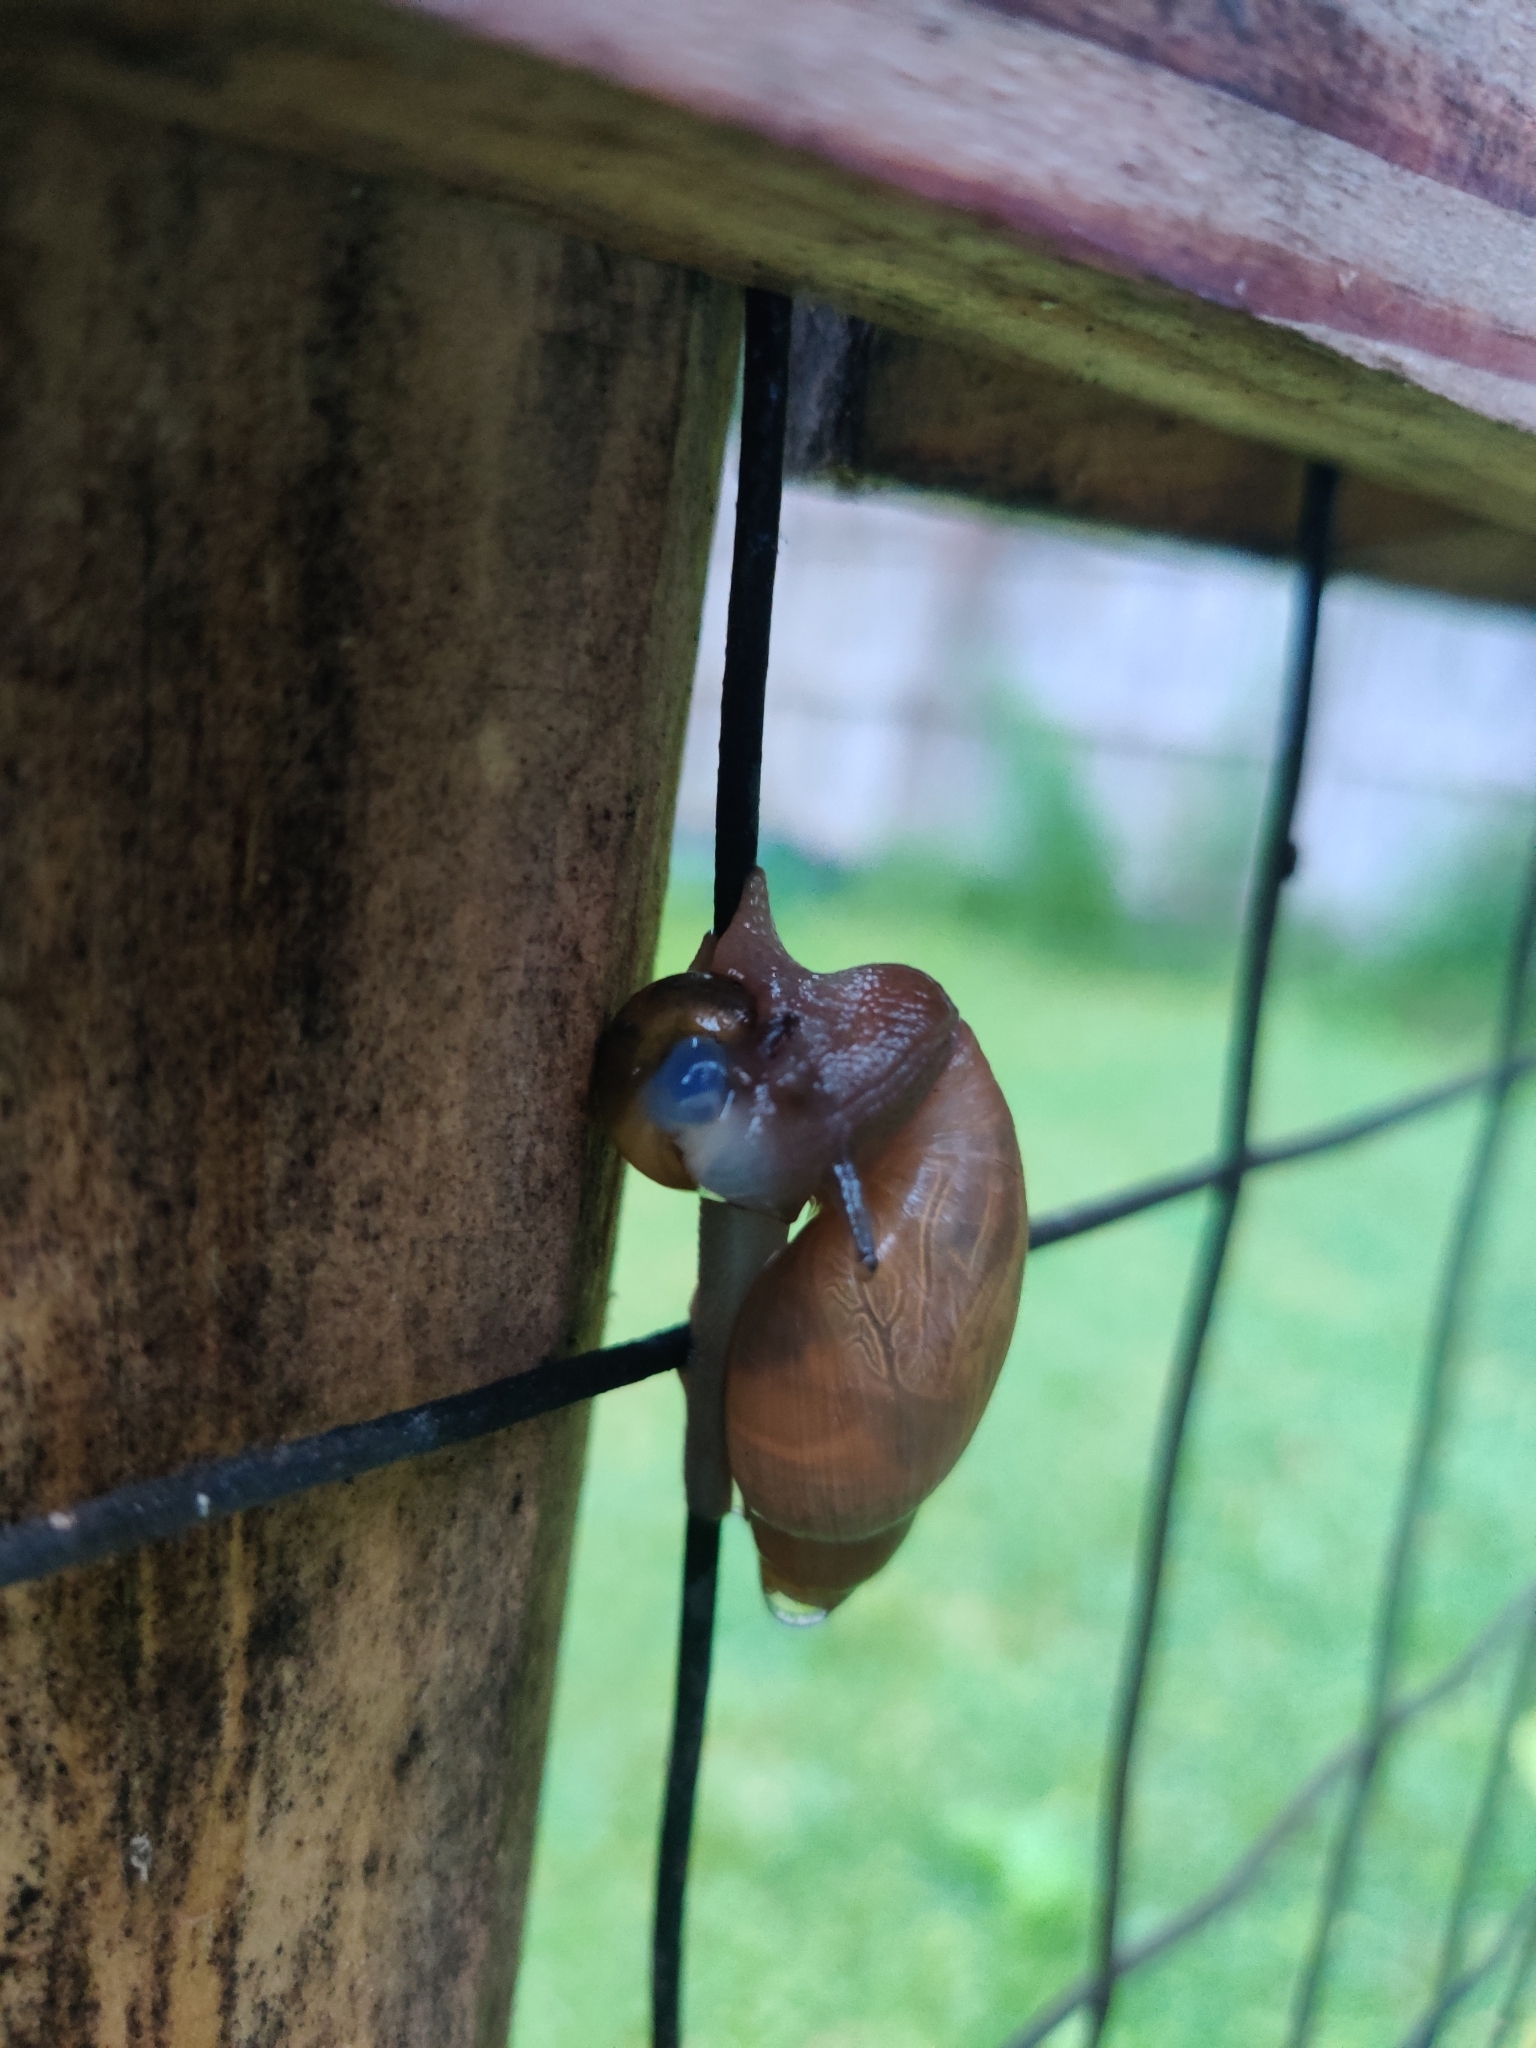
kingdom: Animalia
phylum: Mollusca
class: Gastropoda
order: Stylommatophora
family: Spiraxidae
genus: Euglandina
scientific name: Euglandina rosea
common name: Rosy wolfsnail
